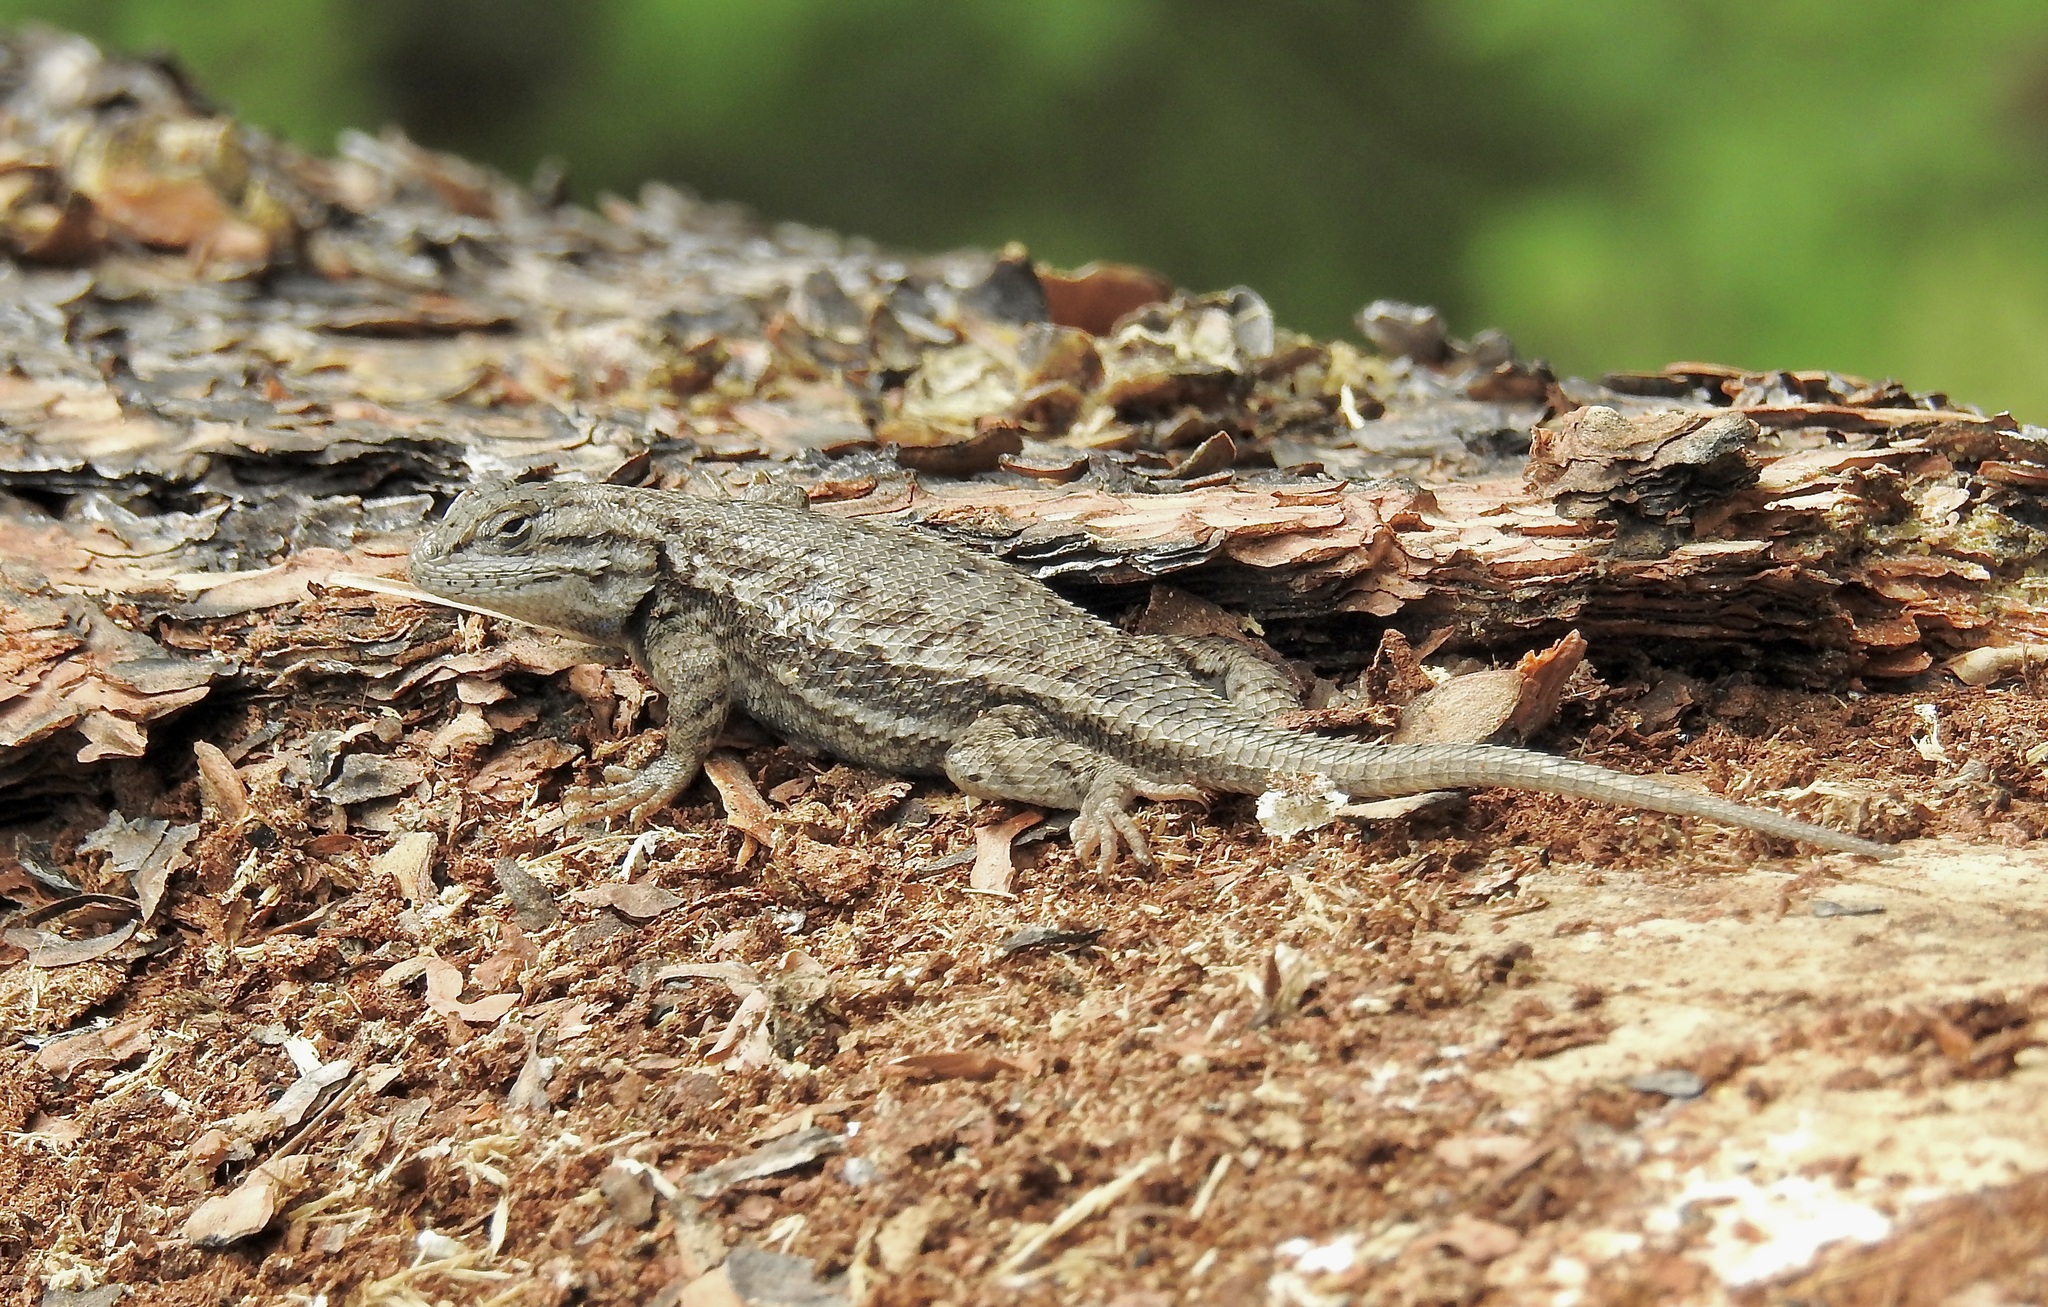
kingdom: Animalia
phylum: Chordata
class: Squamata
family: Phrynosomatidae
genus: Sceloporus
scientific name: Sceloporus
